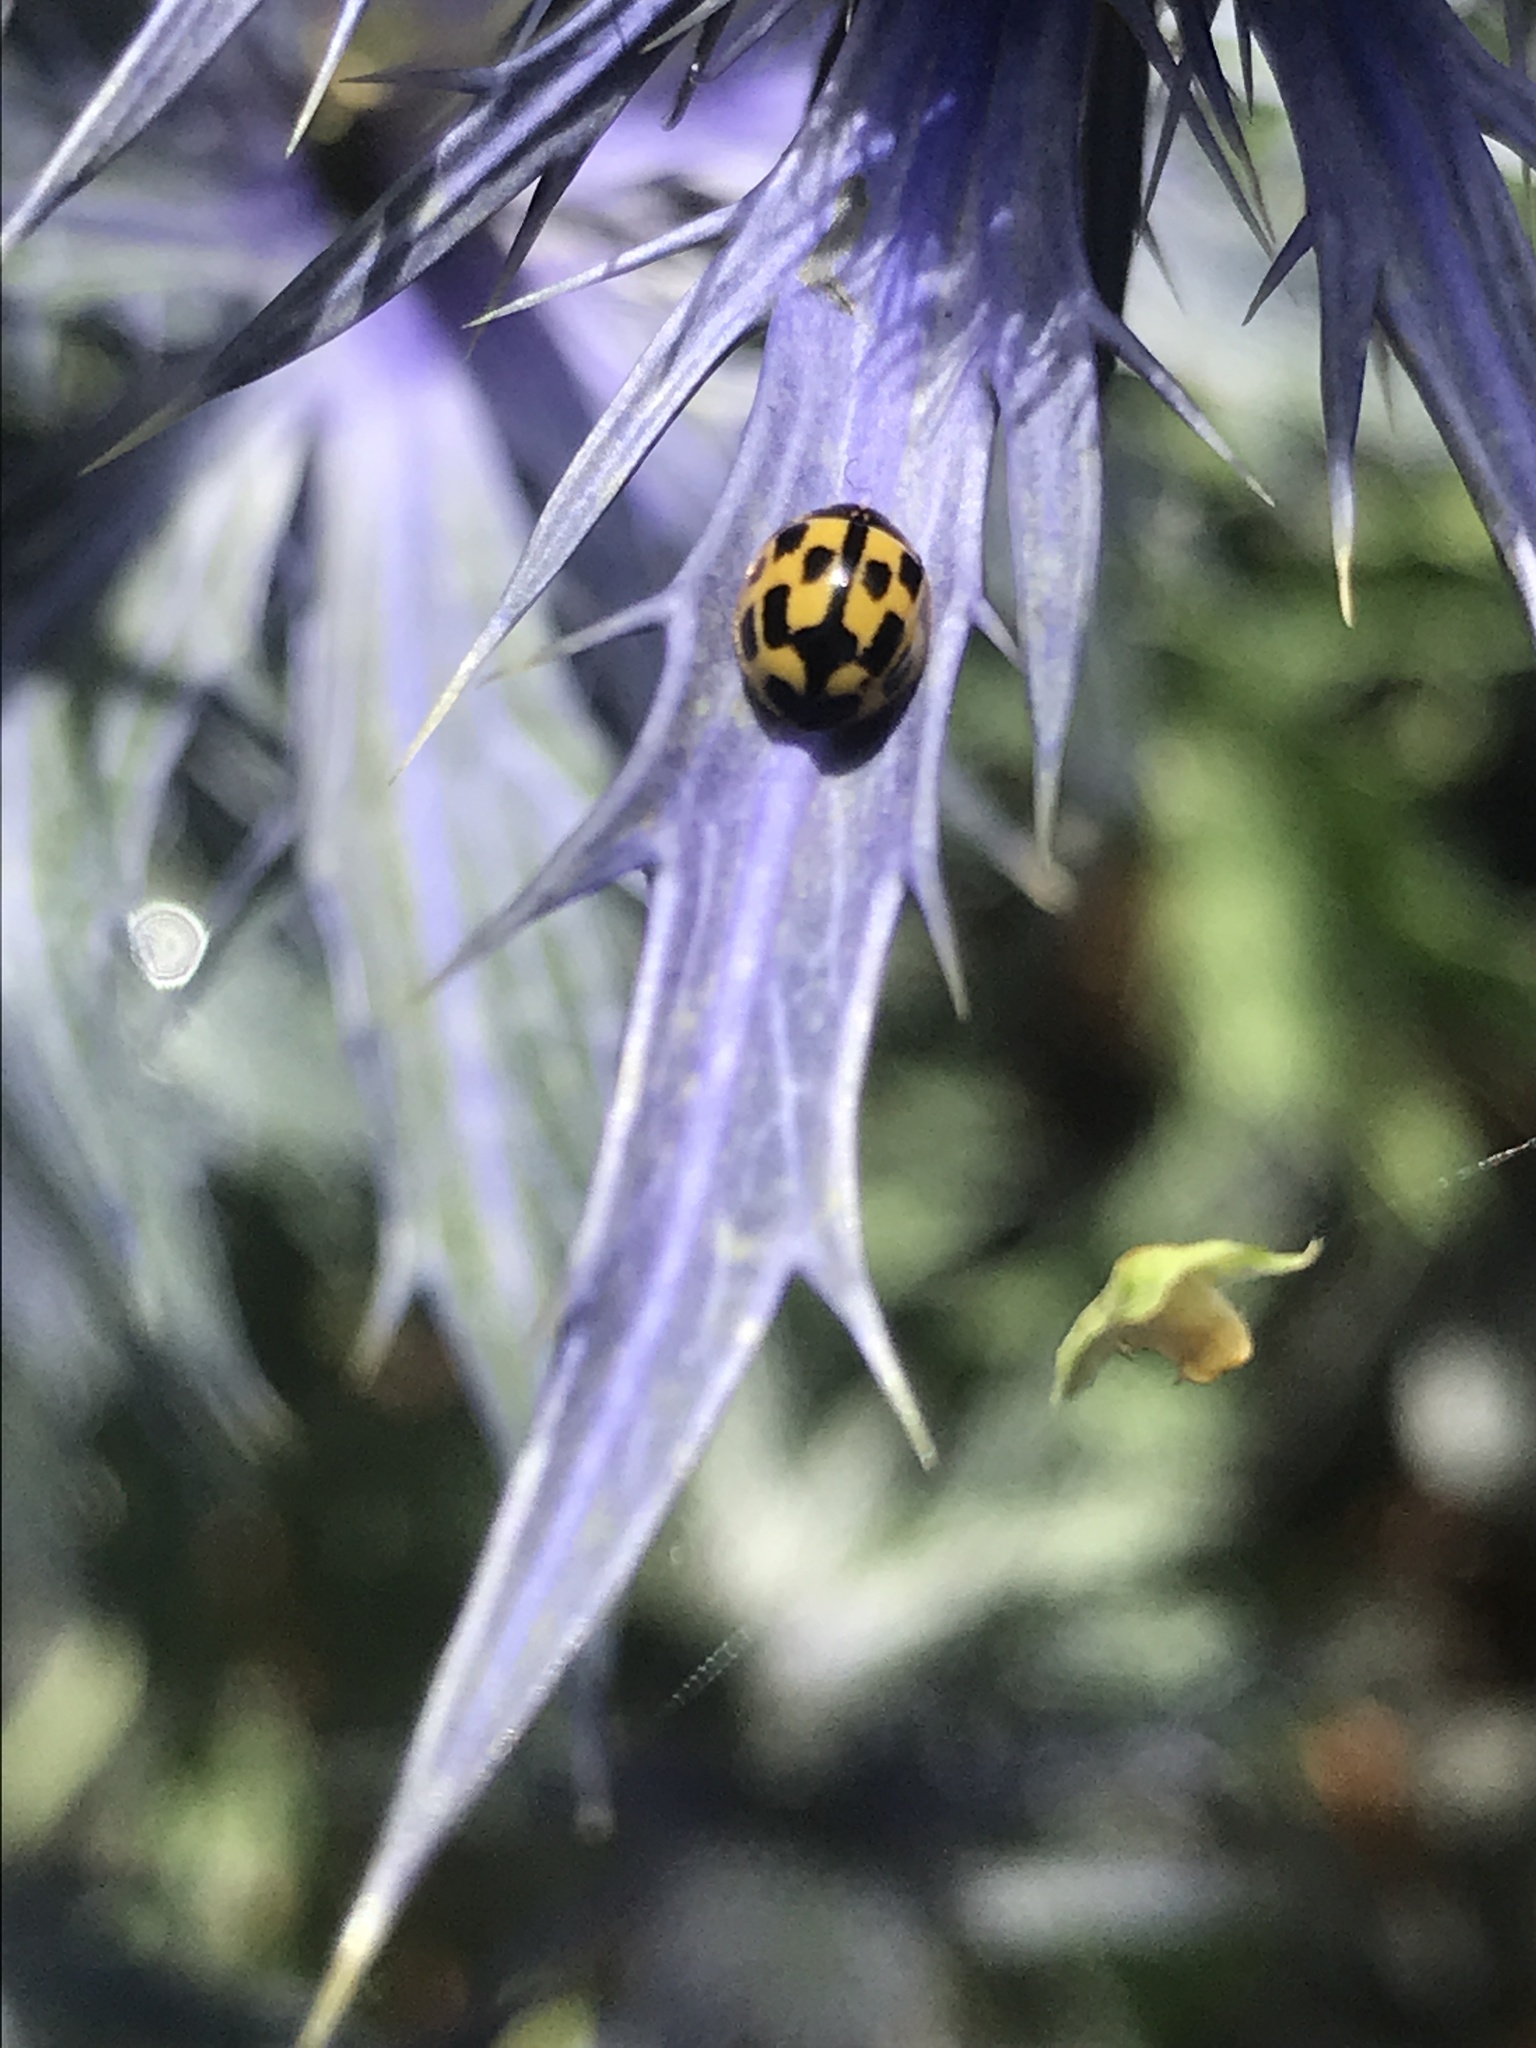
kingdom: Animalia
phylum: Arthropoda
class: Insecta
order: Coleoptera
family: Coccinellidae
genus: Propylaea
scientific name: Propylaea quatuordecimpunctata
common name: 14-spotted ladybird beetle
